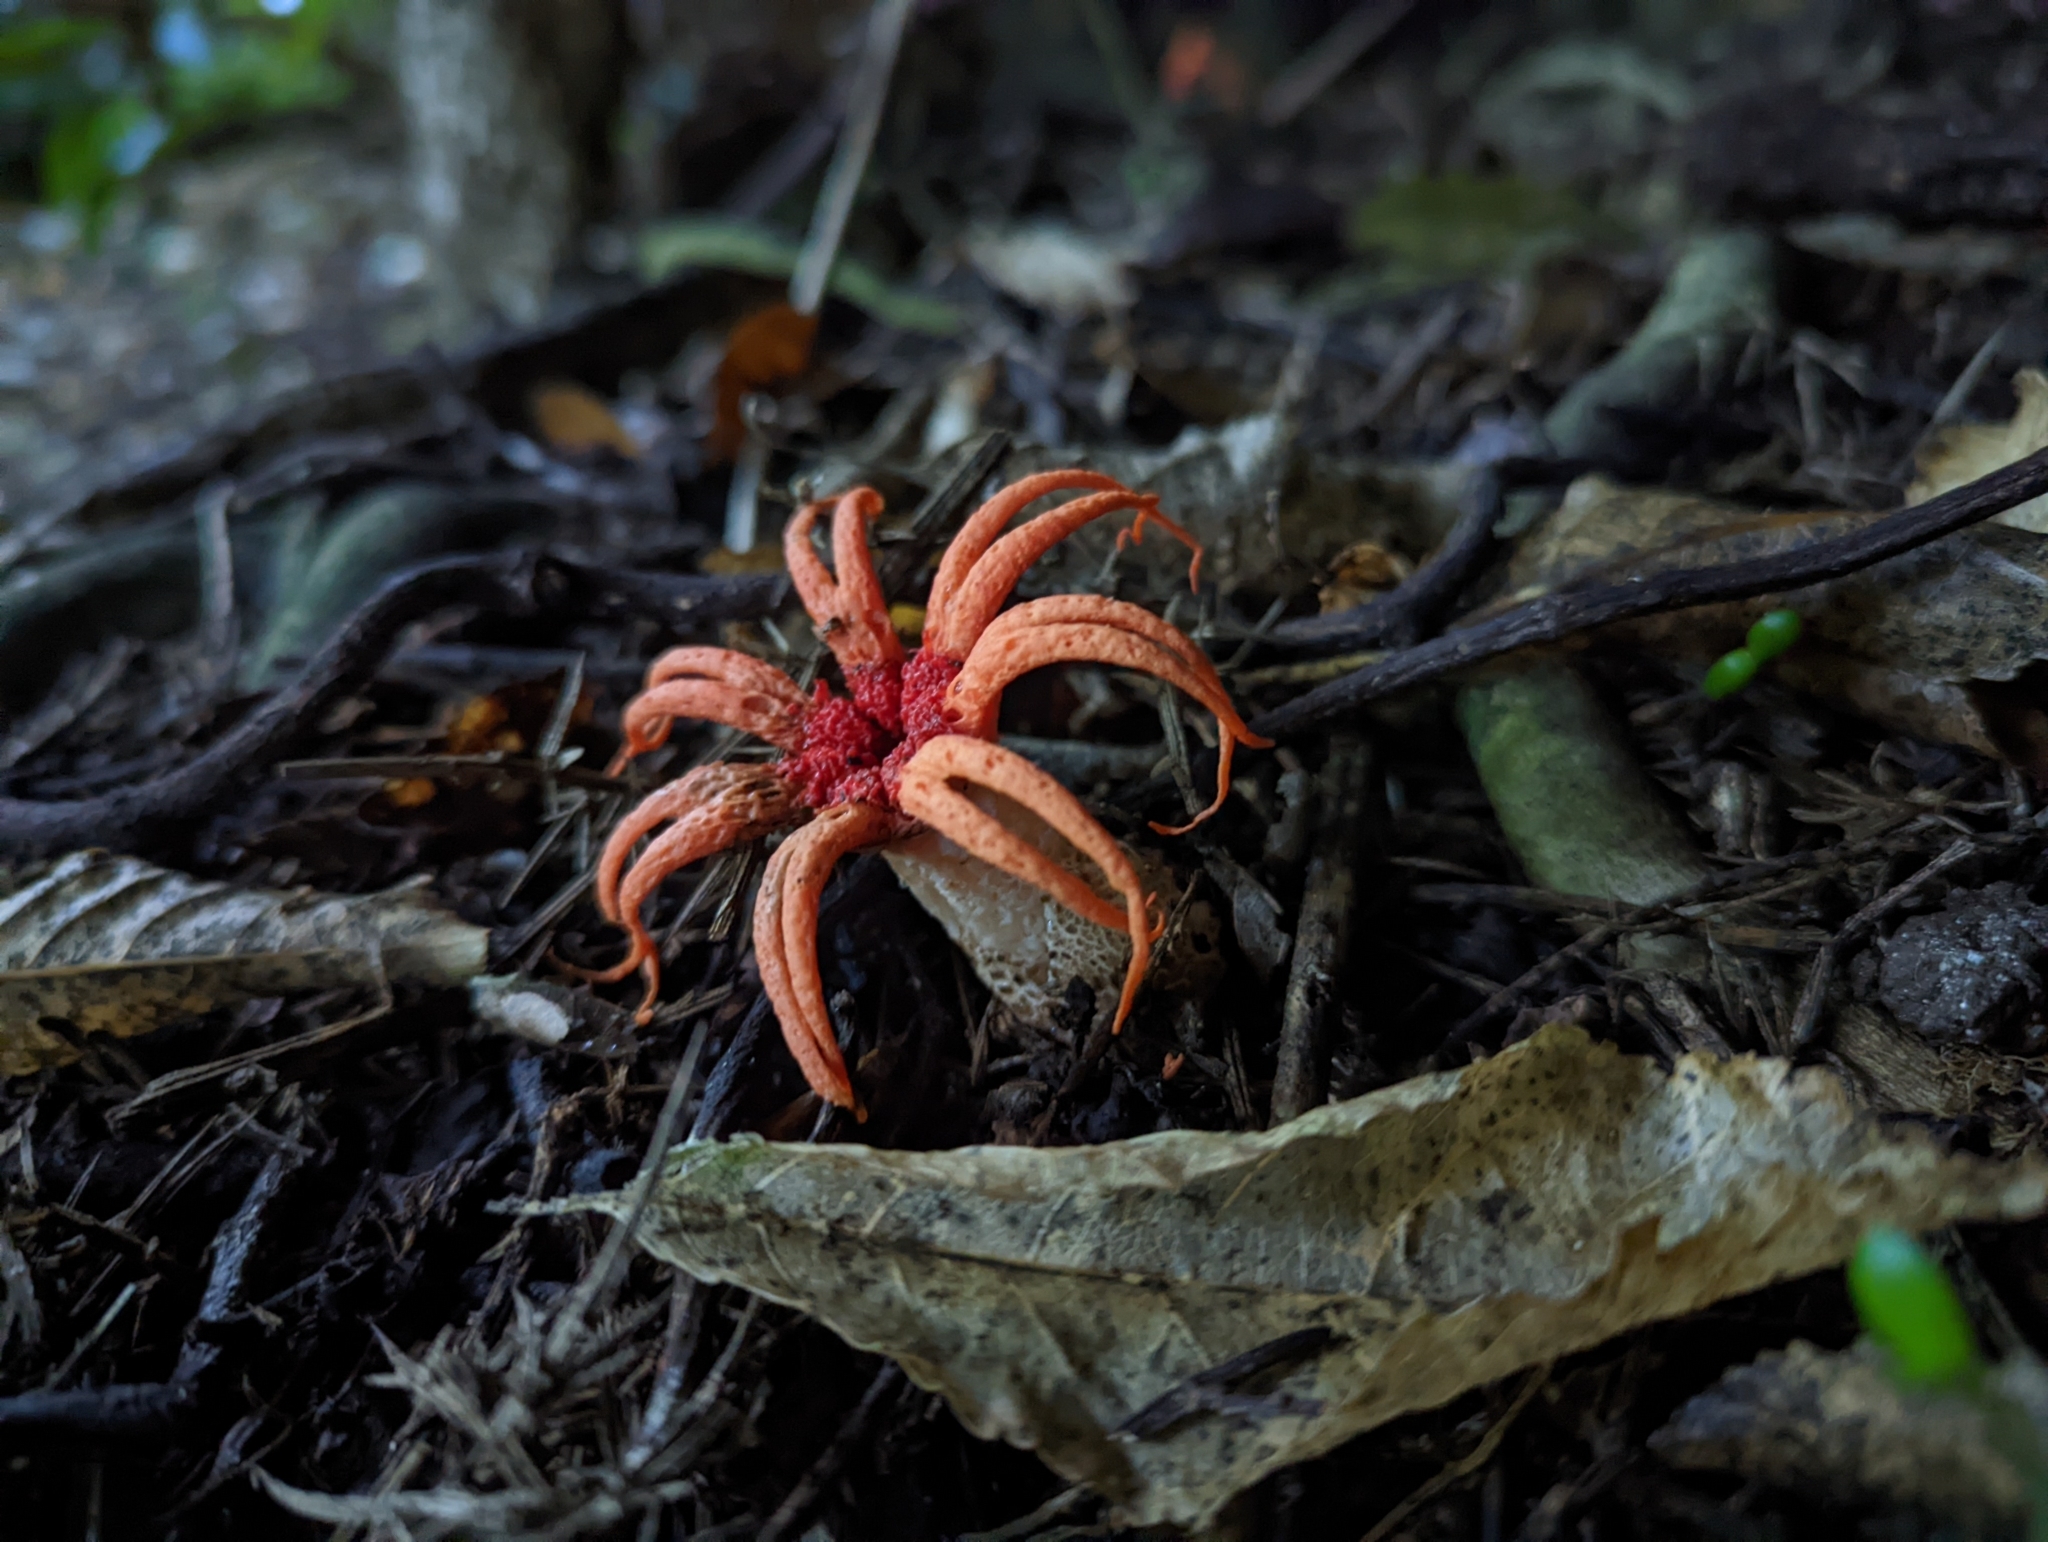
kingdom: Fungi
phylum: Basidiomycota
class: Agaricomycetes
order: Phallales
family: Phallaceae
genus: Aseroe
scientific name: Aseroe rubra
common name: Starfish fungus
